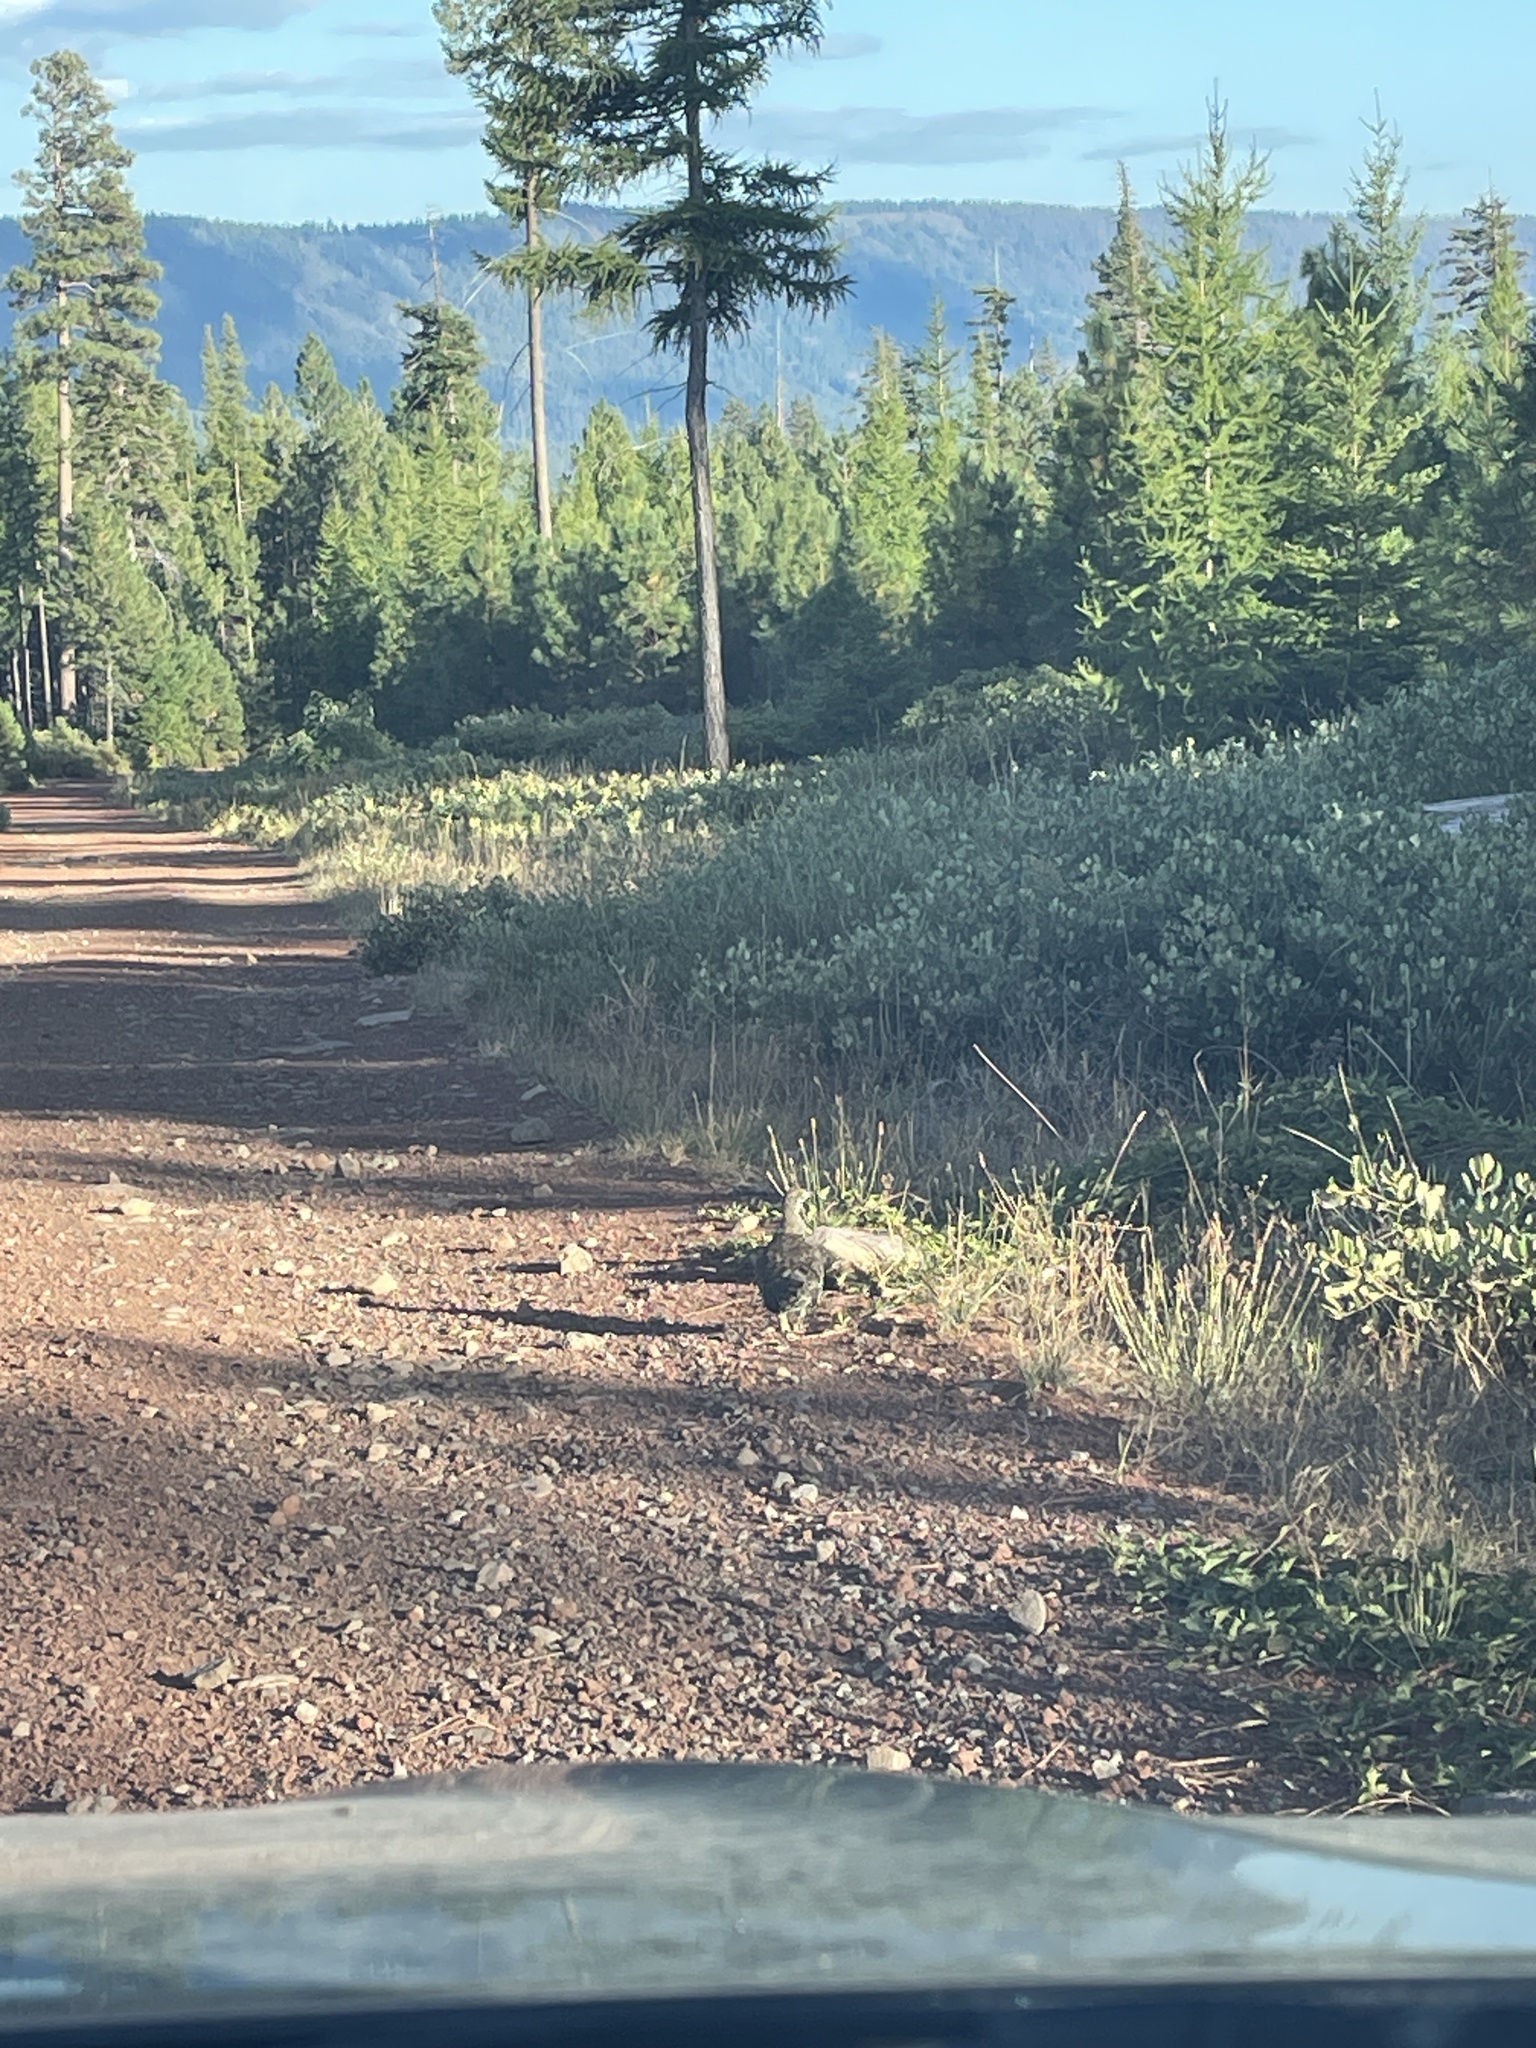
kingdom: Animalia
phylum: Chordata
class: Aves
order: Galliformes
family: Phasianidae
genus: Dendragapus
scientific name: Dendragapus fuliginosus
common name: Sooty grouse
